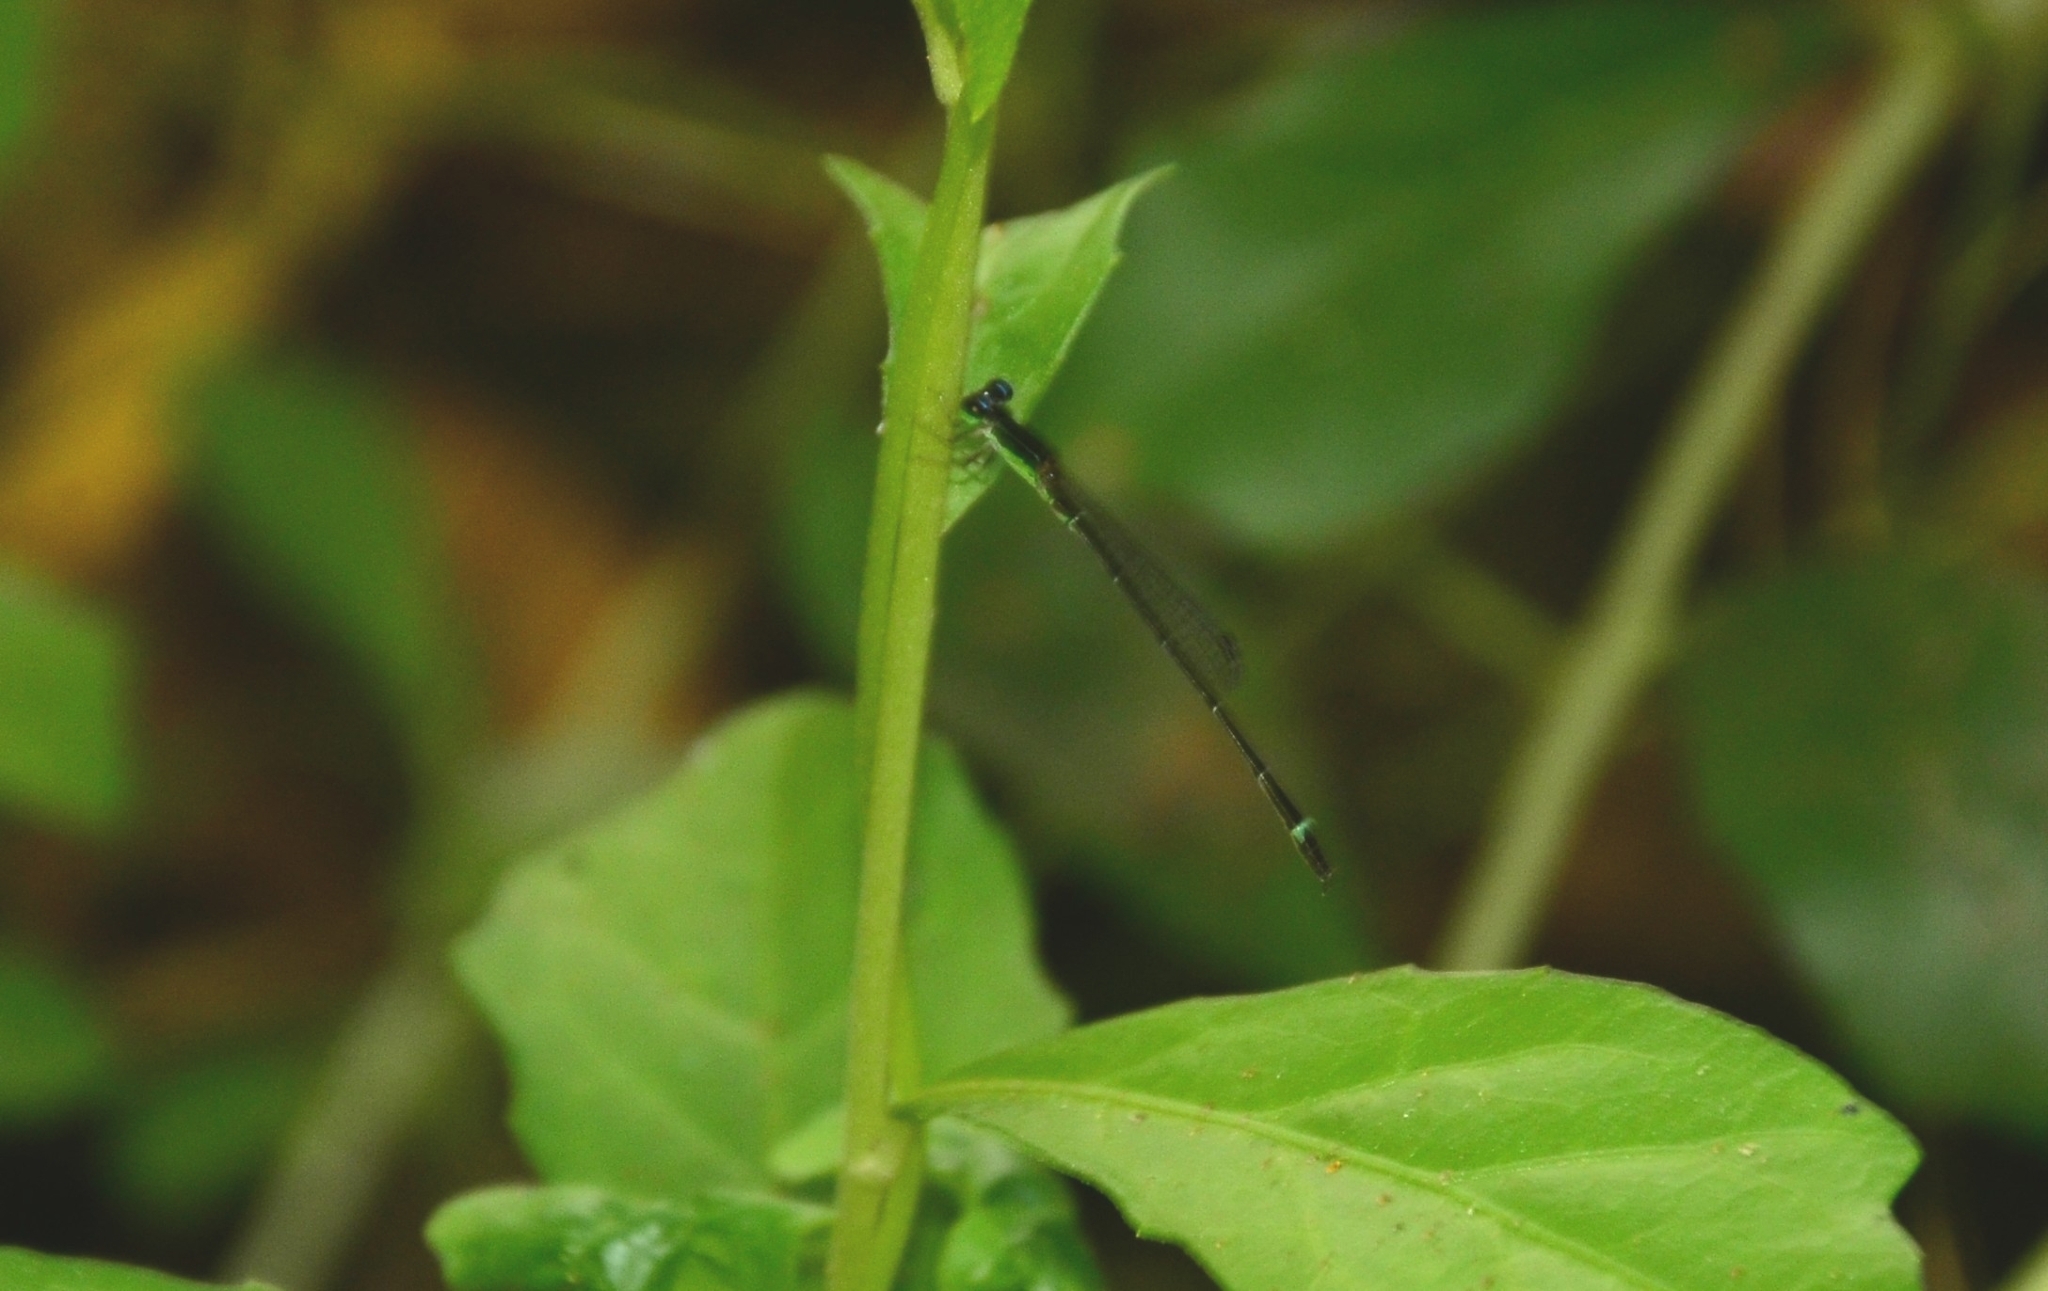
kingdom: Animalia
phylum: Arthropoda
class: Insecta
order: Odonata
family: Coenagrionidae
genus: Mortonagrion
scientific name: Mortonagrion varralli
